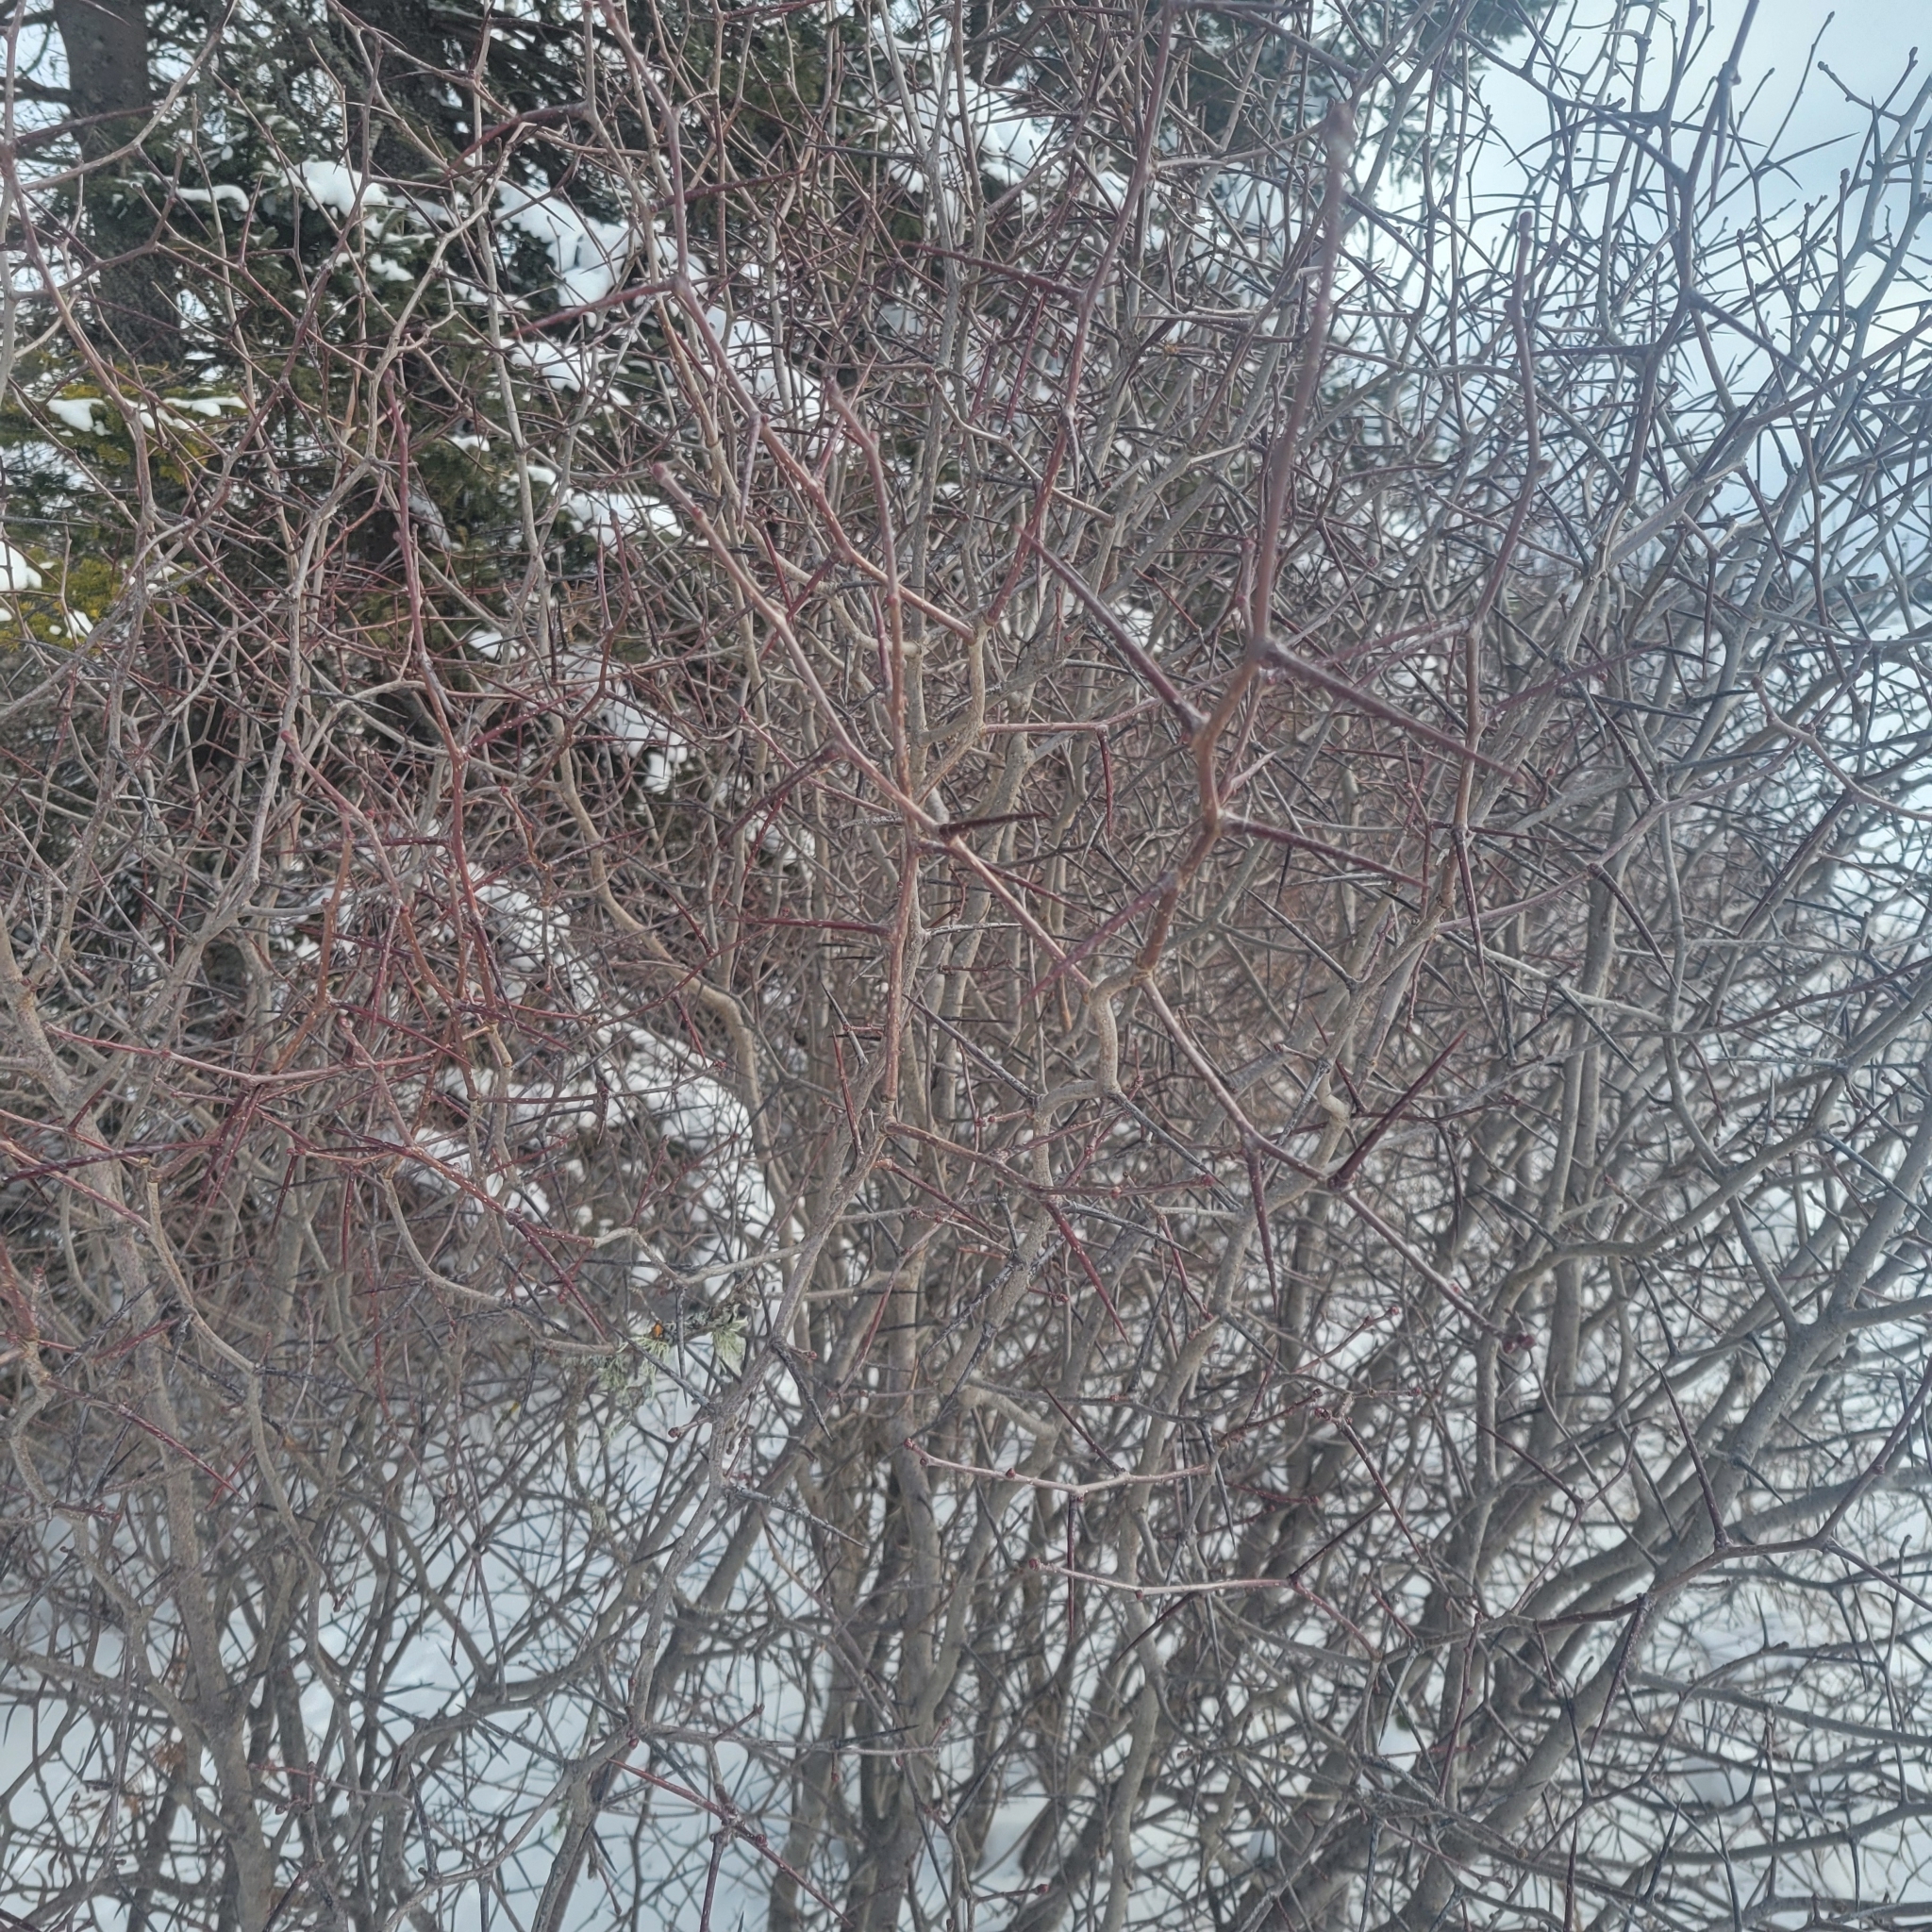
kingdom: Plantae
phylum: Tracheophyta
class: Magnoliopsida
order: Rosales
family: Rosaceae
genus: Crataegus
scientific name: Crataegus
